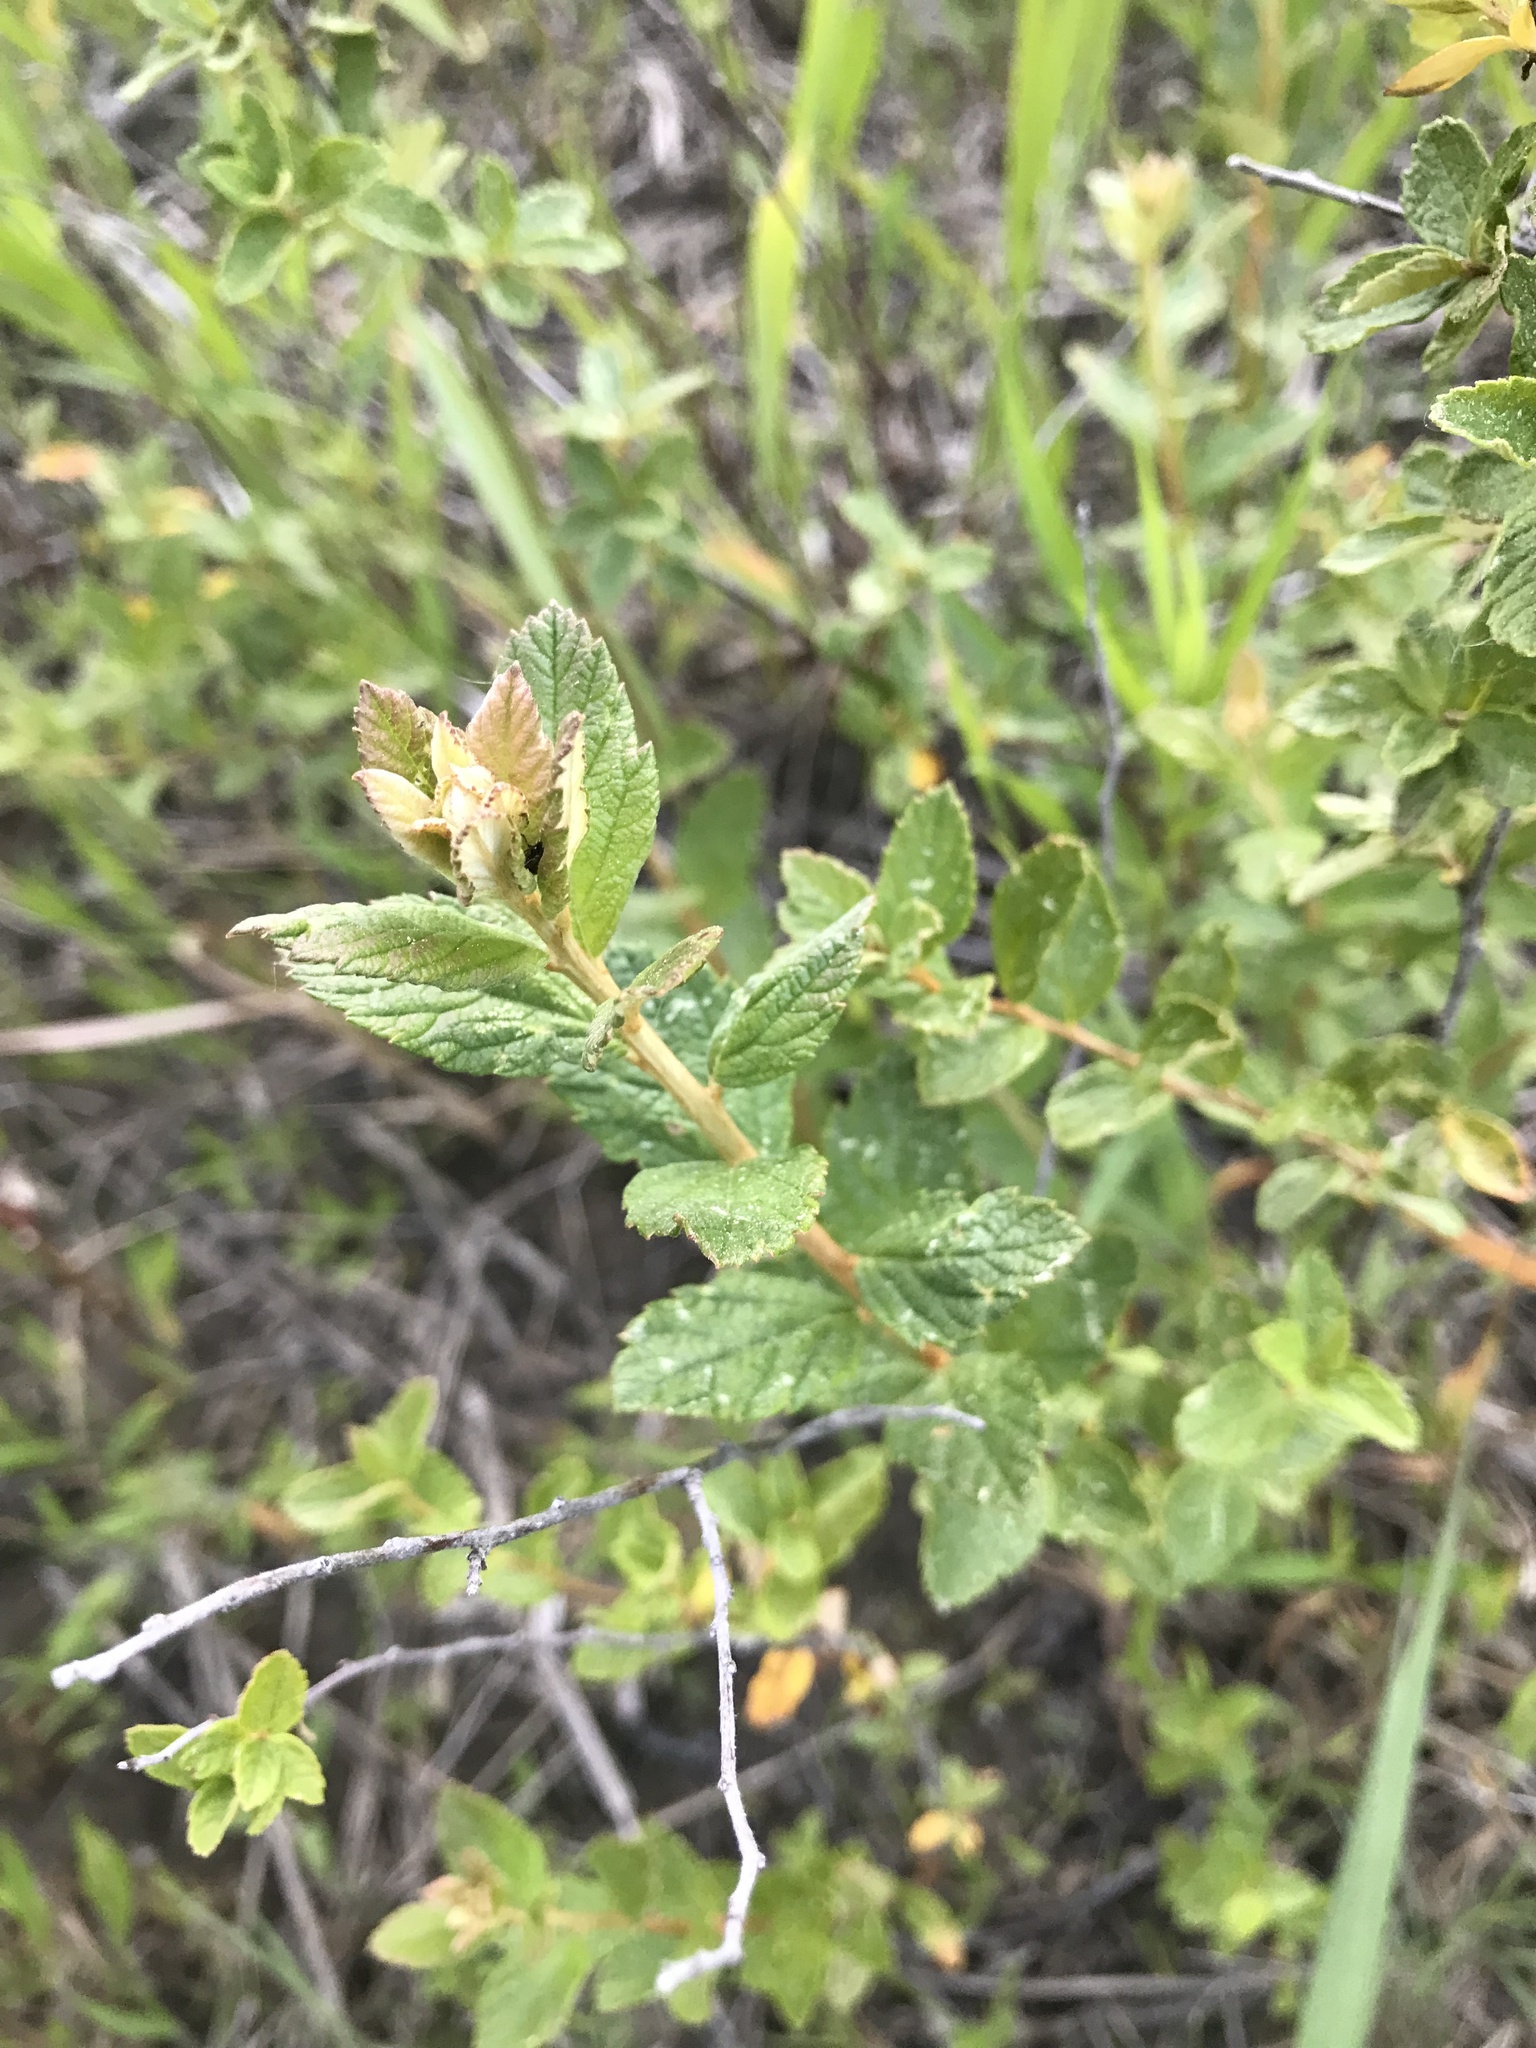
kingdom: Plantae
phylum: Tracheophyta
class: Magnoliopsida
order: Rosales
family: Rosaceae
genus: Spiraea
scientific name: Spiraea tomentosa
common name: Hardhack
